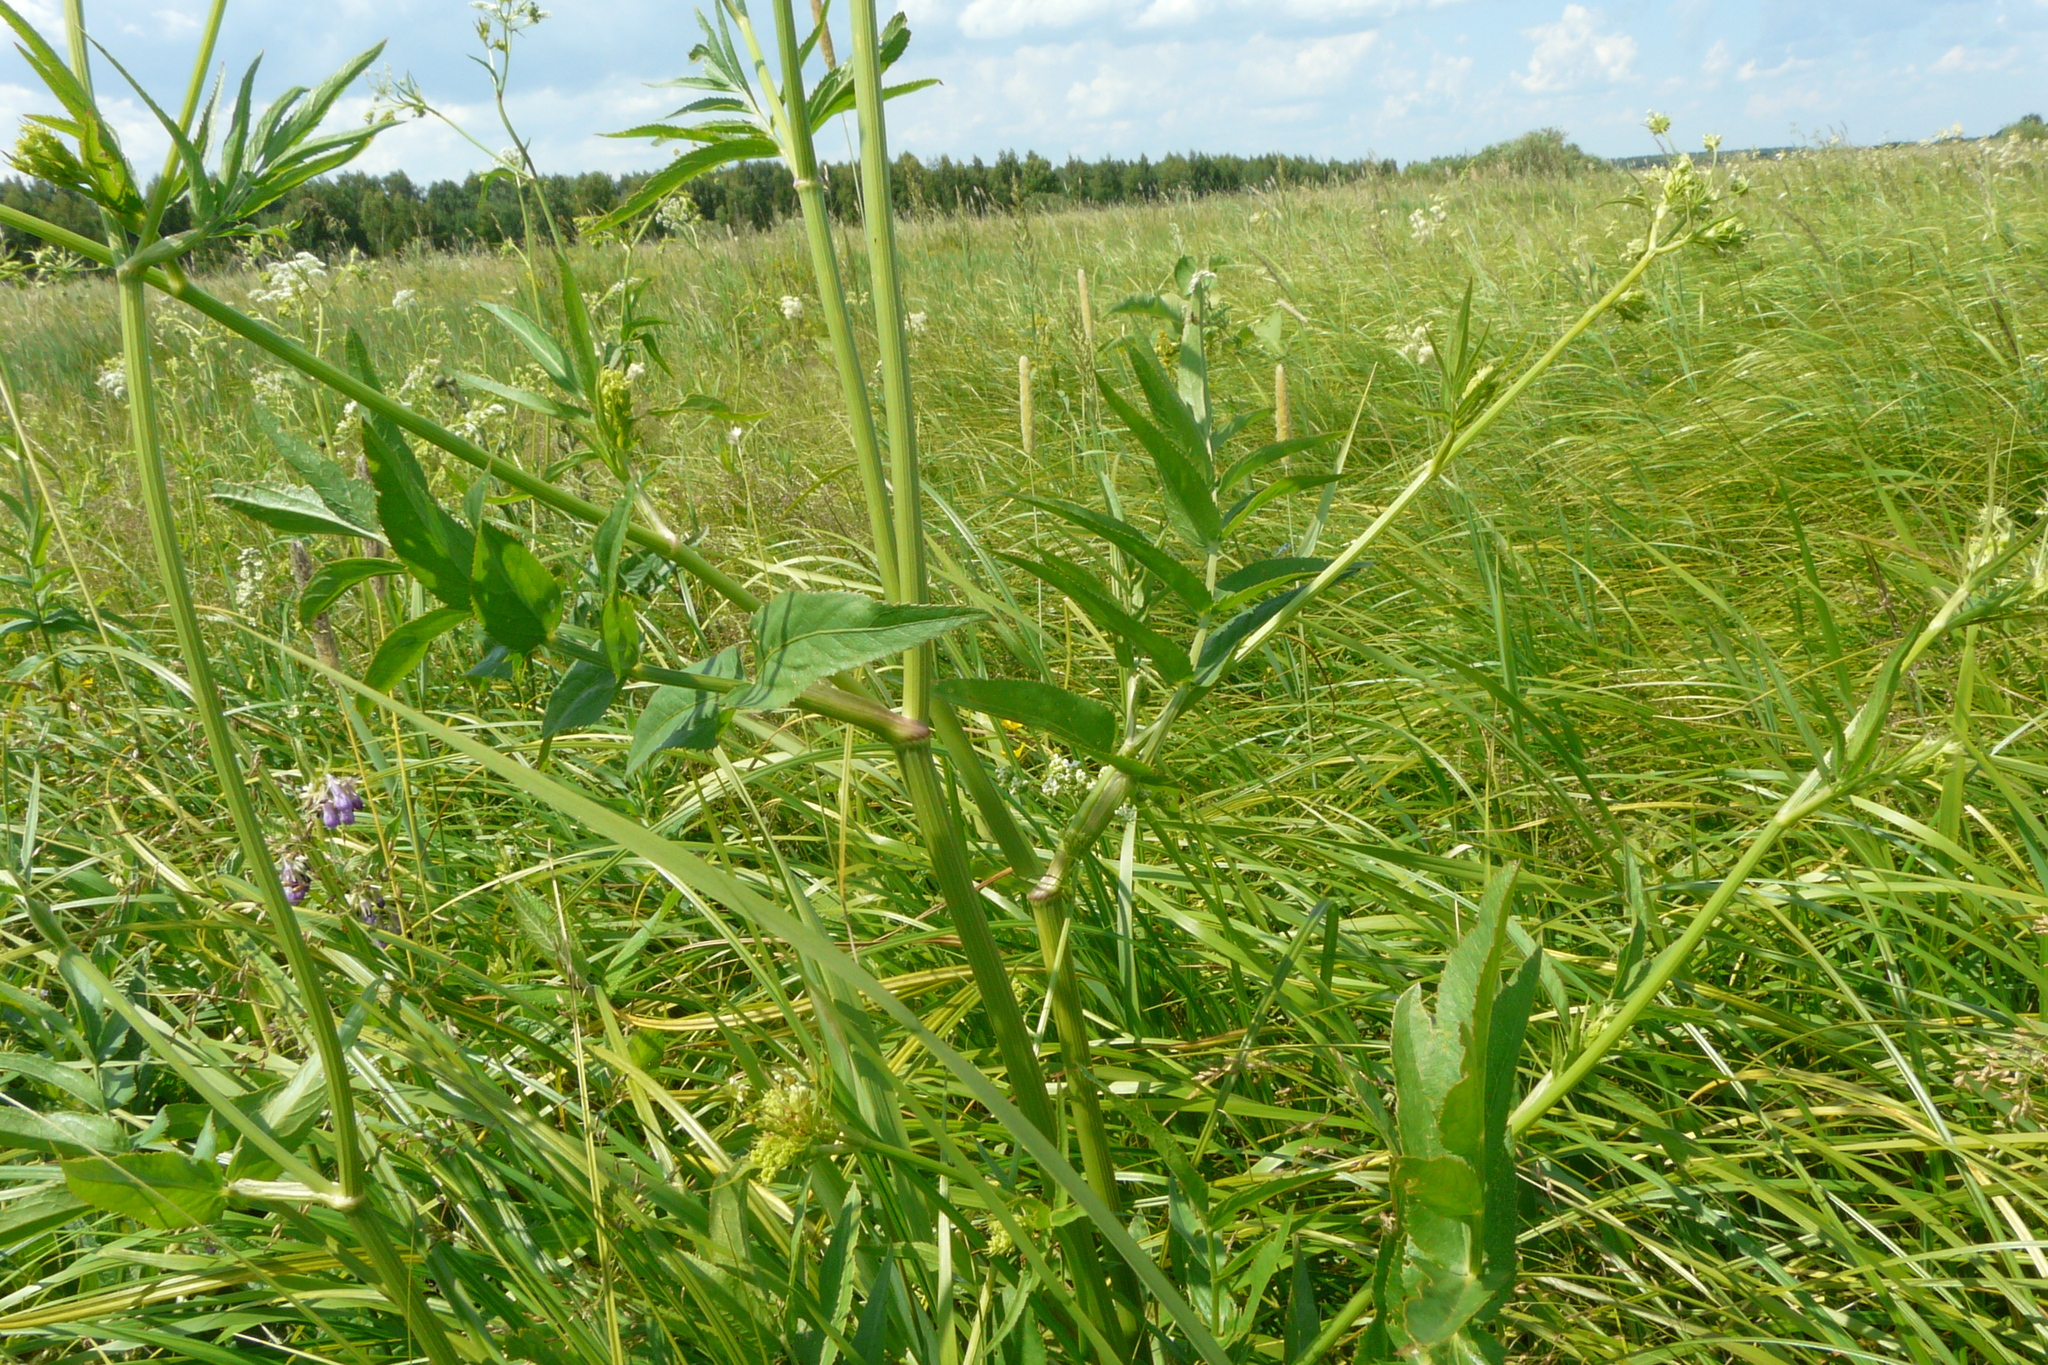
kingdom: Plantae
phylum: Tracheophyta
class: Magnoliopsida
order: Apiales
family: Apiaceae
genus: Sium
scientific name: Sium sisarum
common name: Skirret
